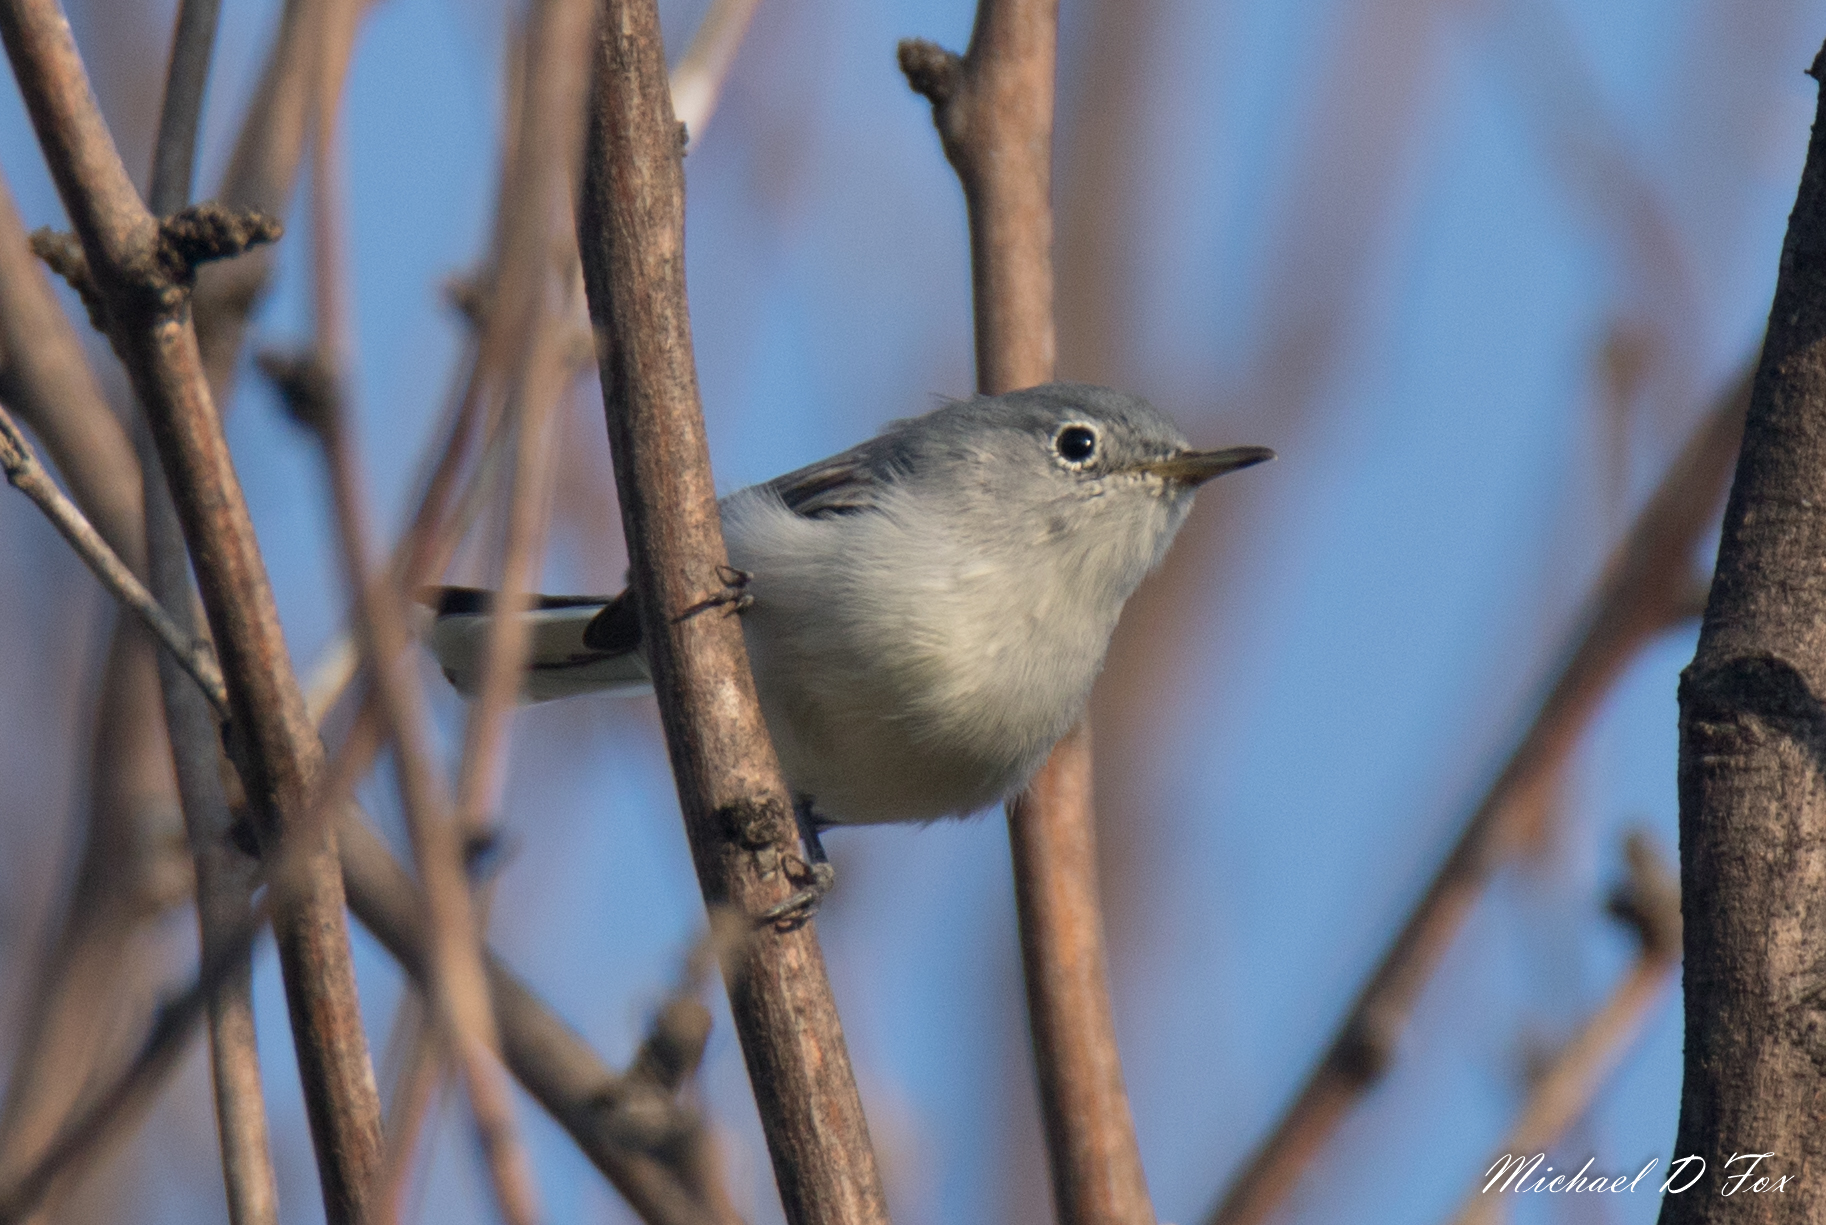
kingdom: Animalia
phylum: Chordata
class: Aves
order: Passeriformes
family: Polioptilidae
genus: Polioptila
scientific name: Polioptila caerulea
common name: Blue-gray gnatcatcher
